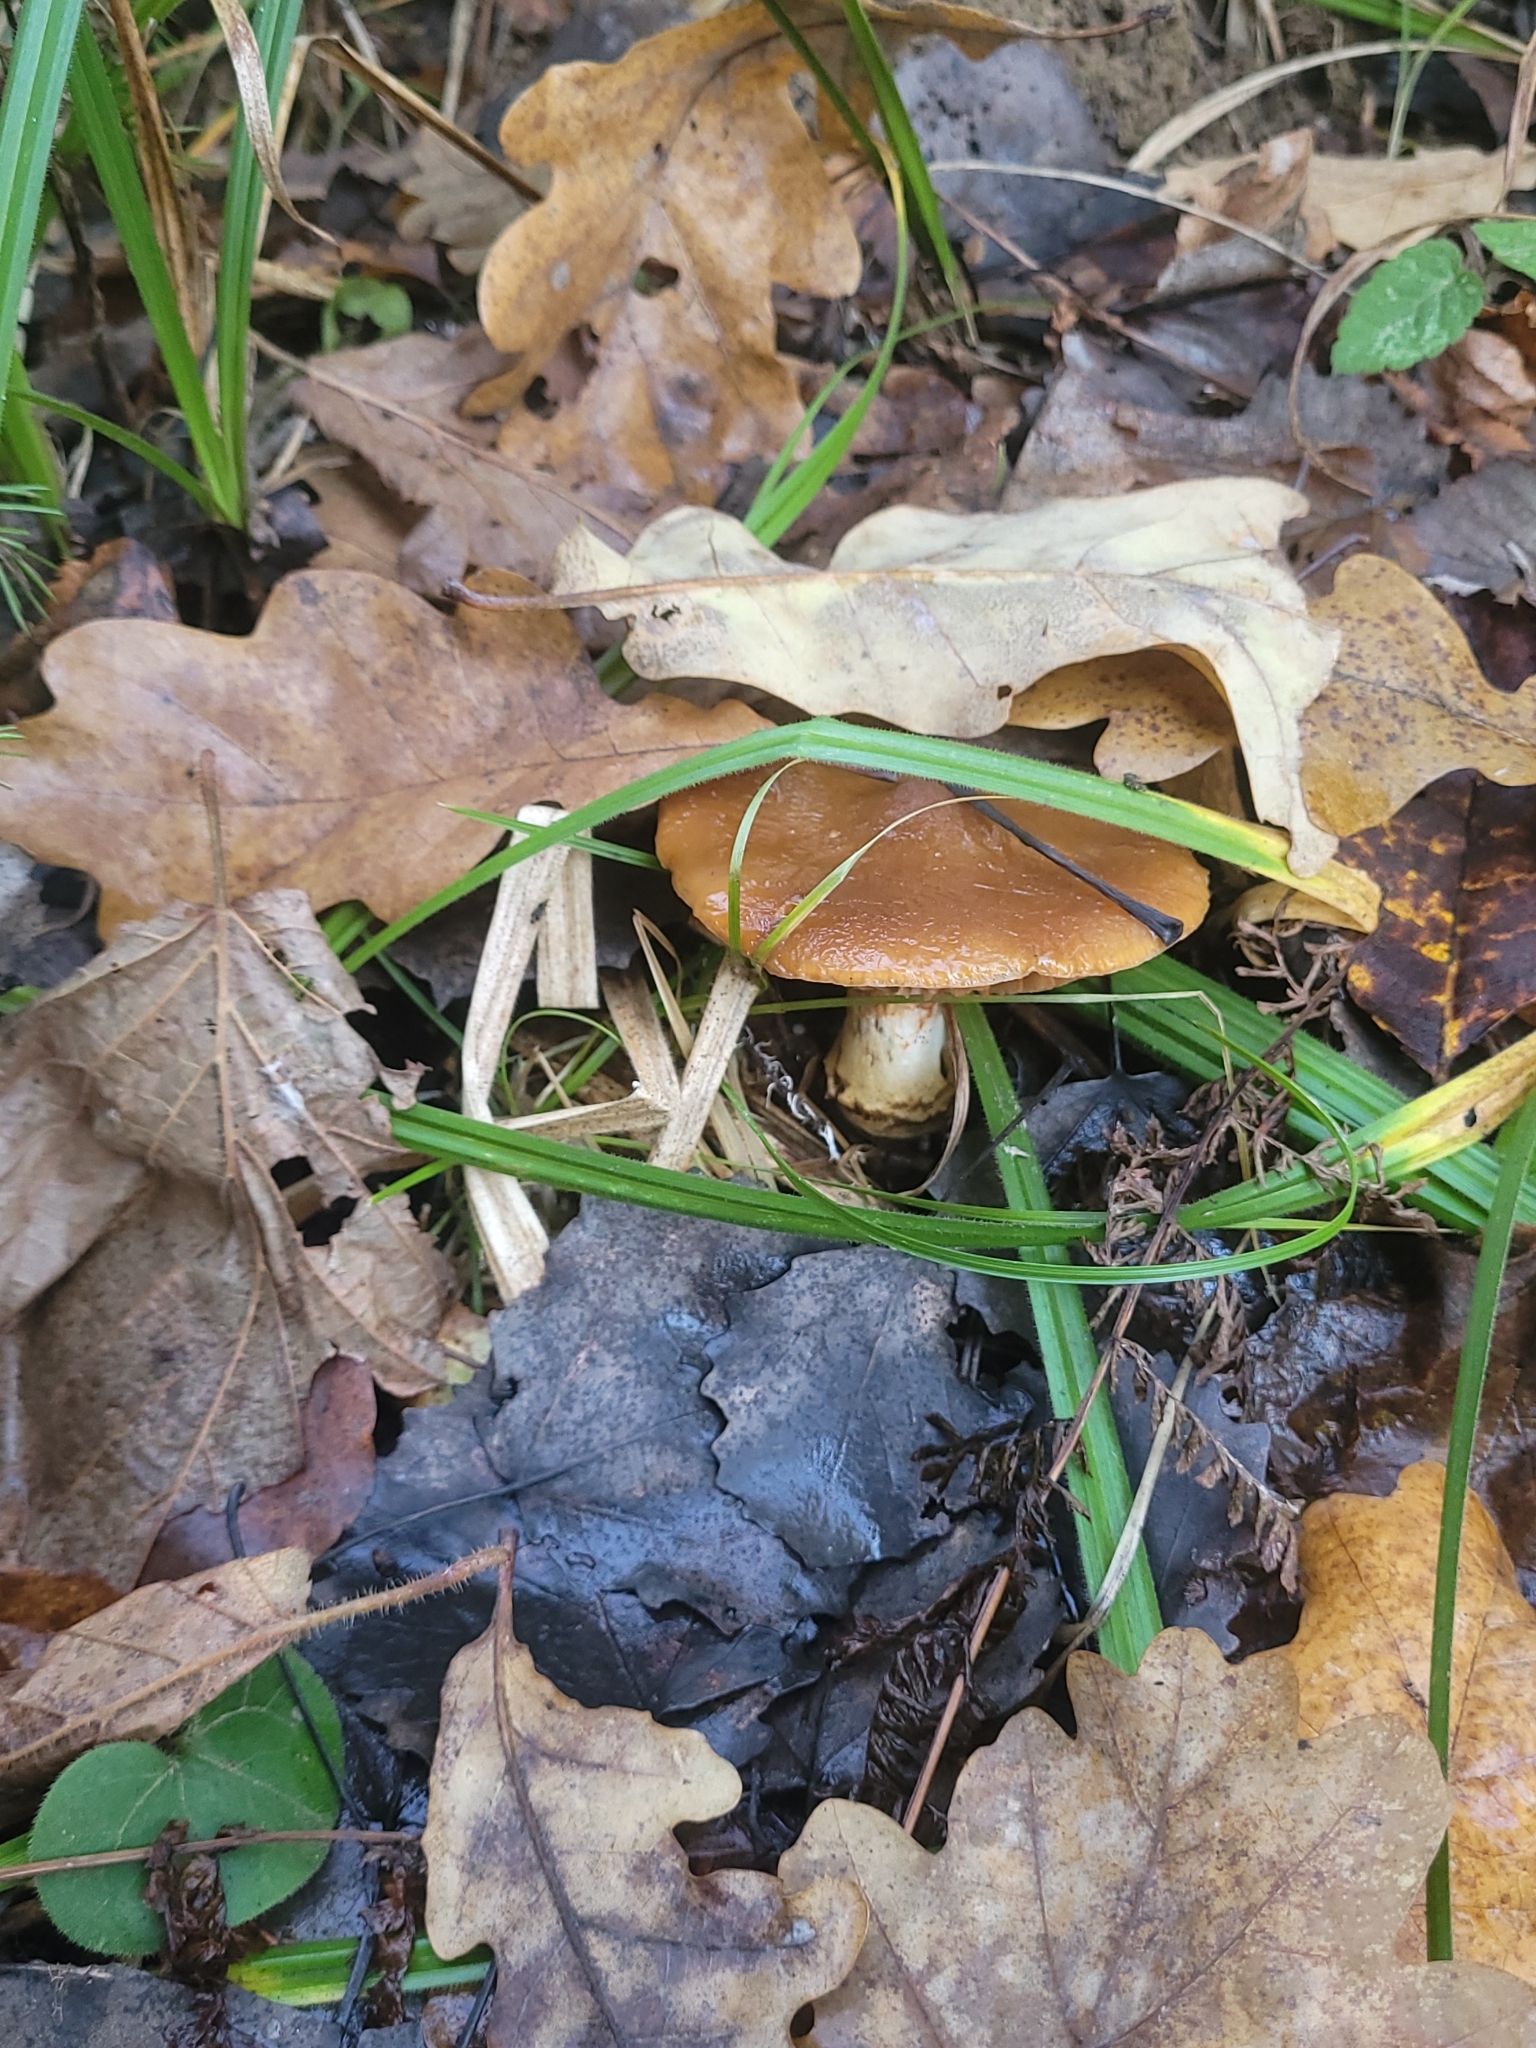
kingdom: Fungi
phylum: Basidiomycota
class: Agaricomycetes
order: Agaricales
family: Cortinariaceae
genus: Cortinarius
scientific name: Cortinarius trivialis
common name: Girdled webcap
